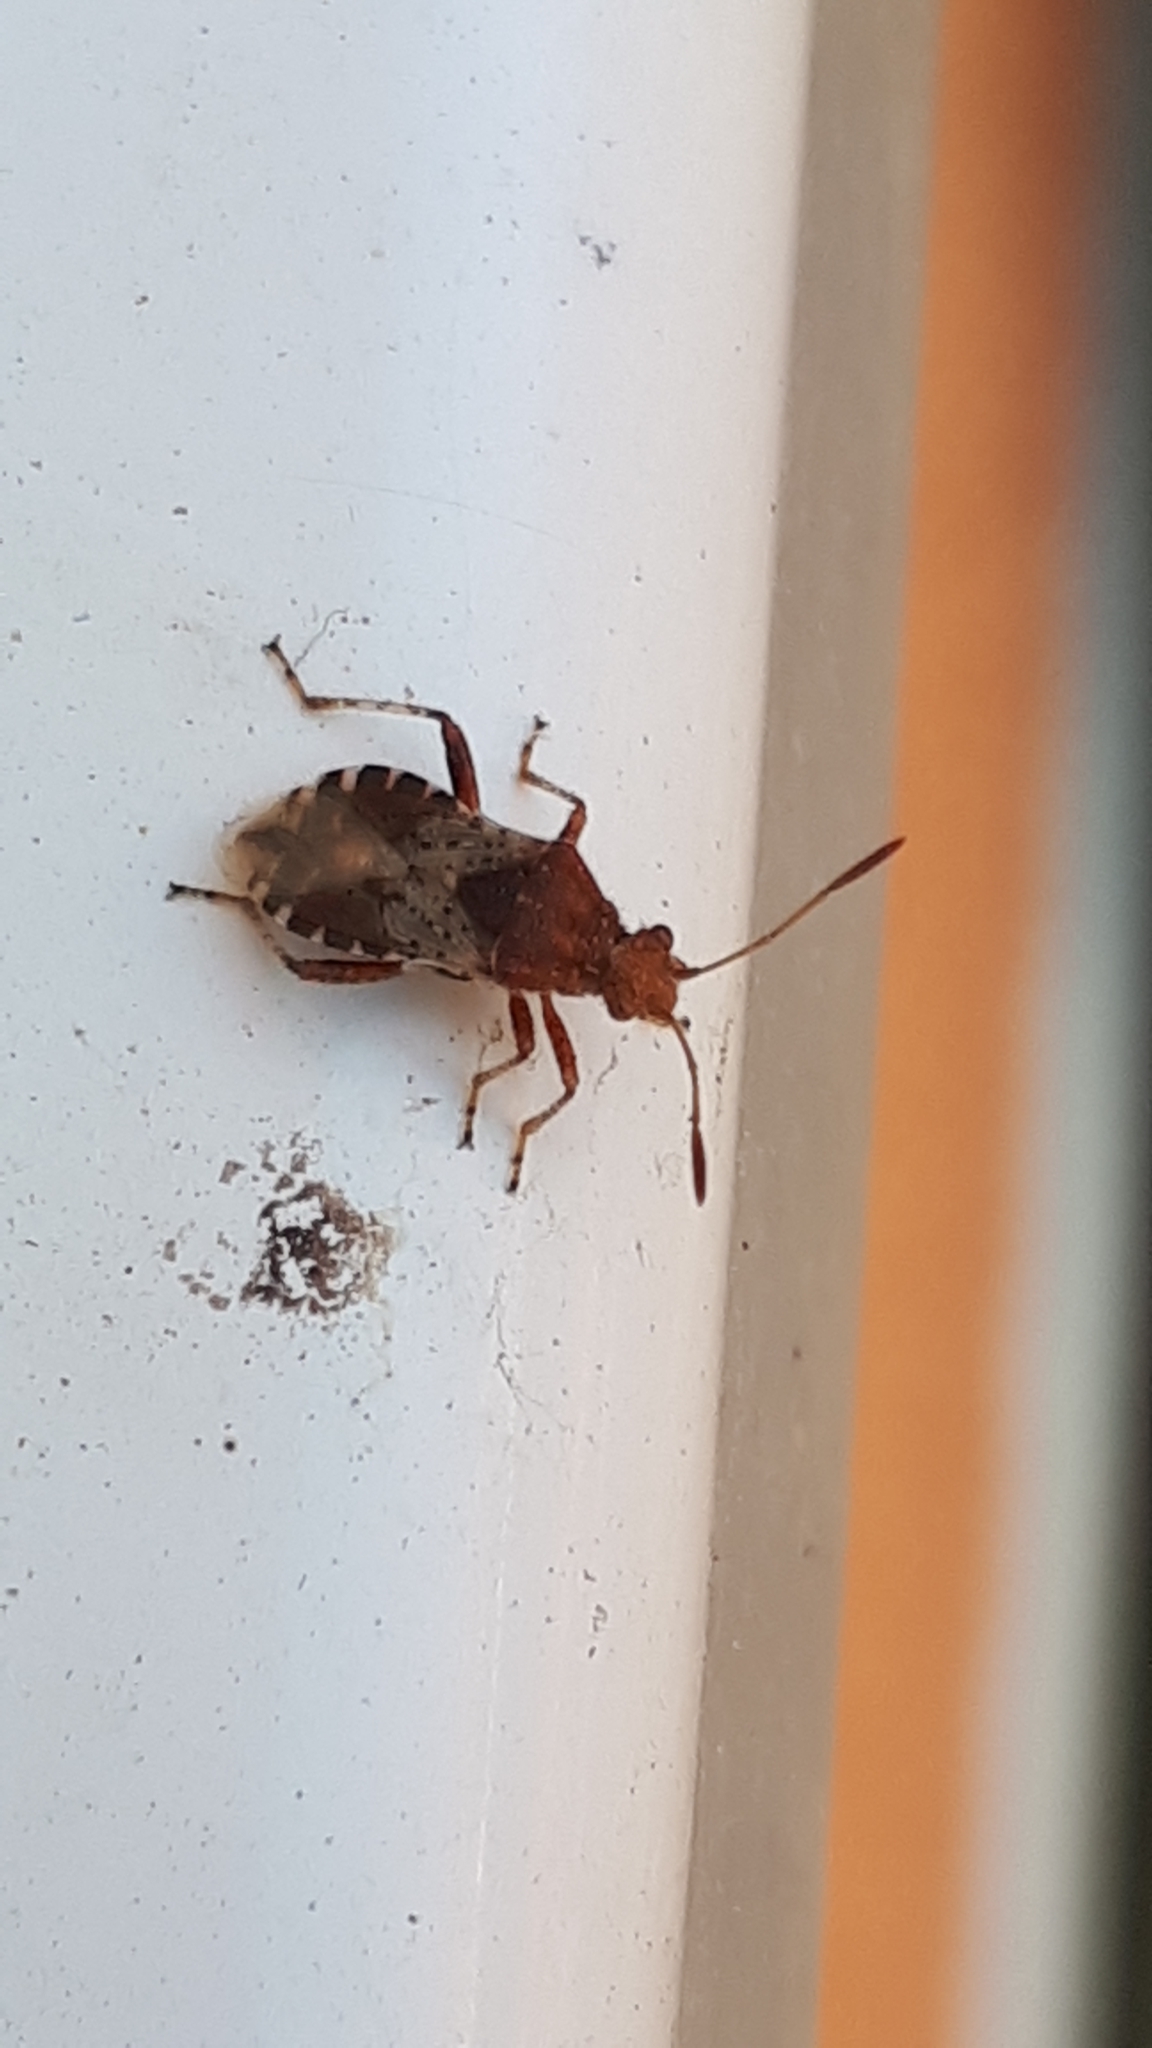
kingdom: Animalia
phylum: Arthropoda
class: Insecta
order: Hemiptera
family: Rhopalidae
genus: Rhopalus
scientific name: Rhopalus subrufus
